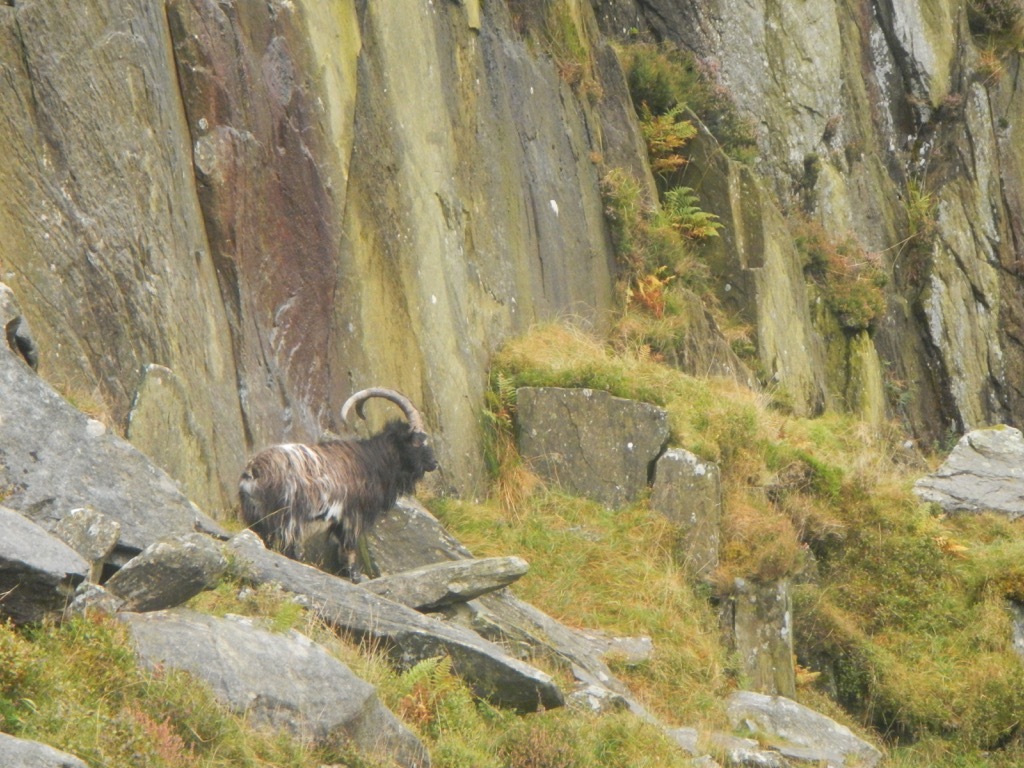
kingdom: Animalia
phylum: Chordata
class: Mammalia
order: Artiodactyla
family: Bovidae
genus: Capra
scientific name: Capra hircus
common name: Domestic goat
